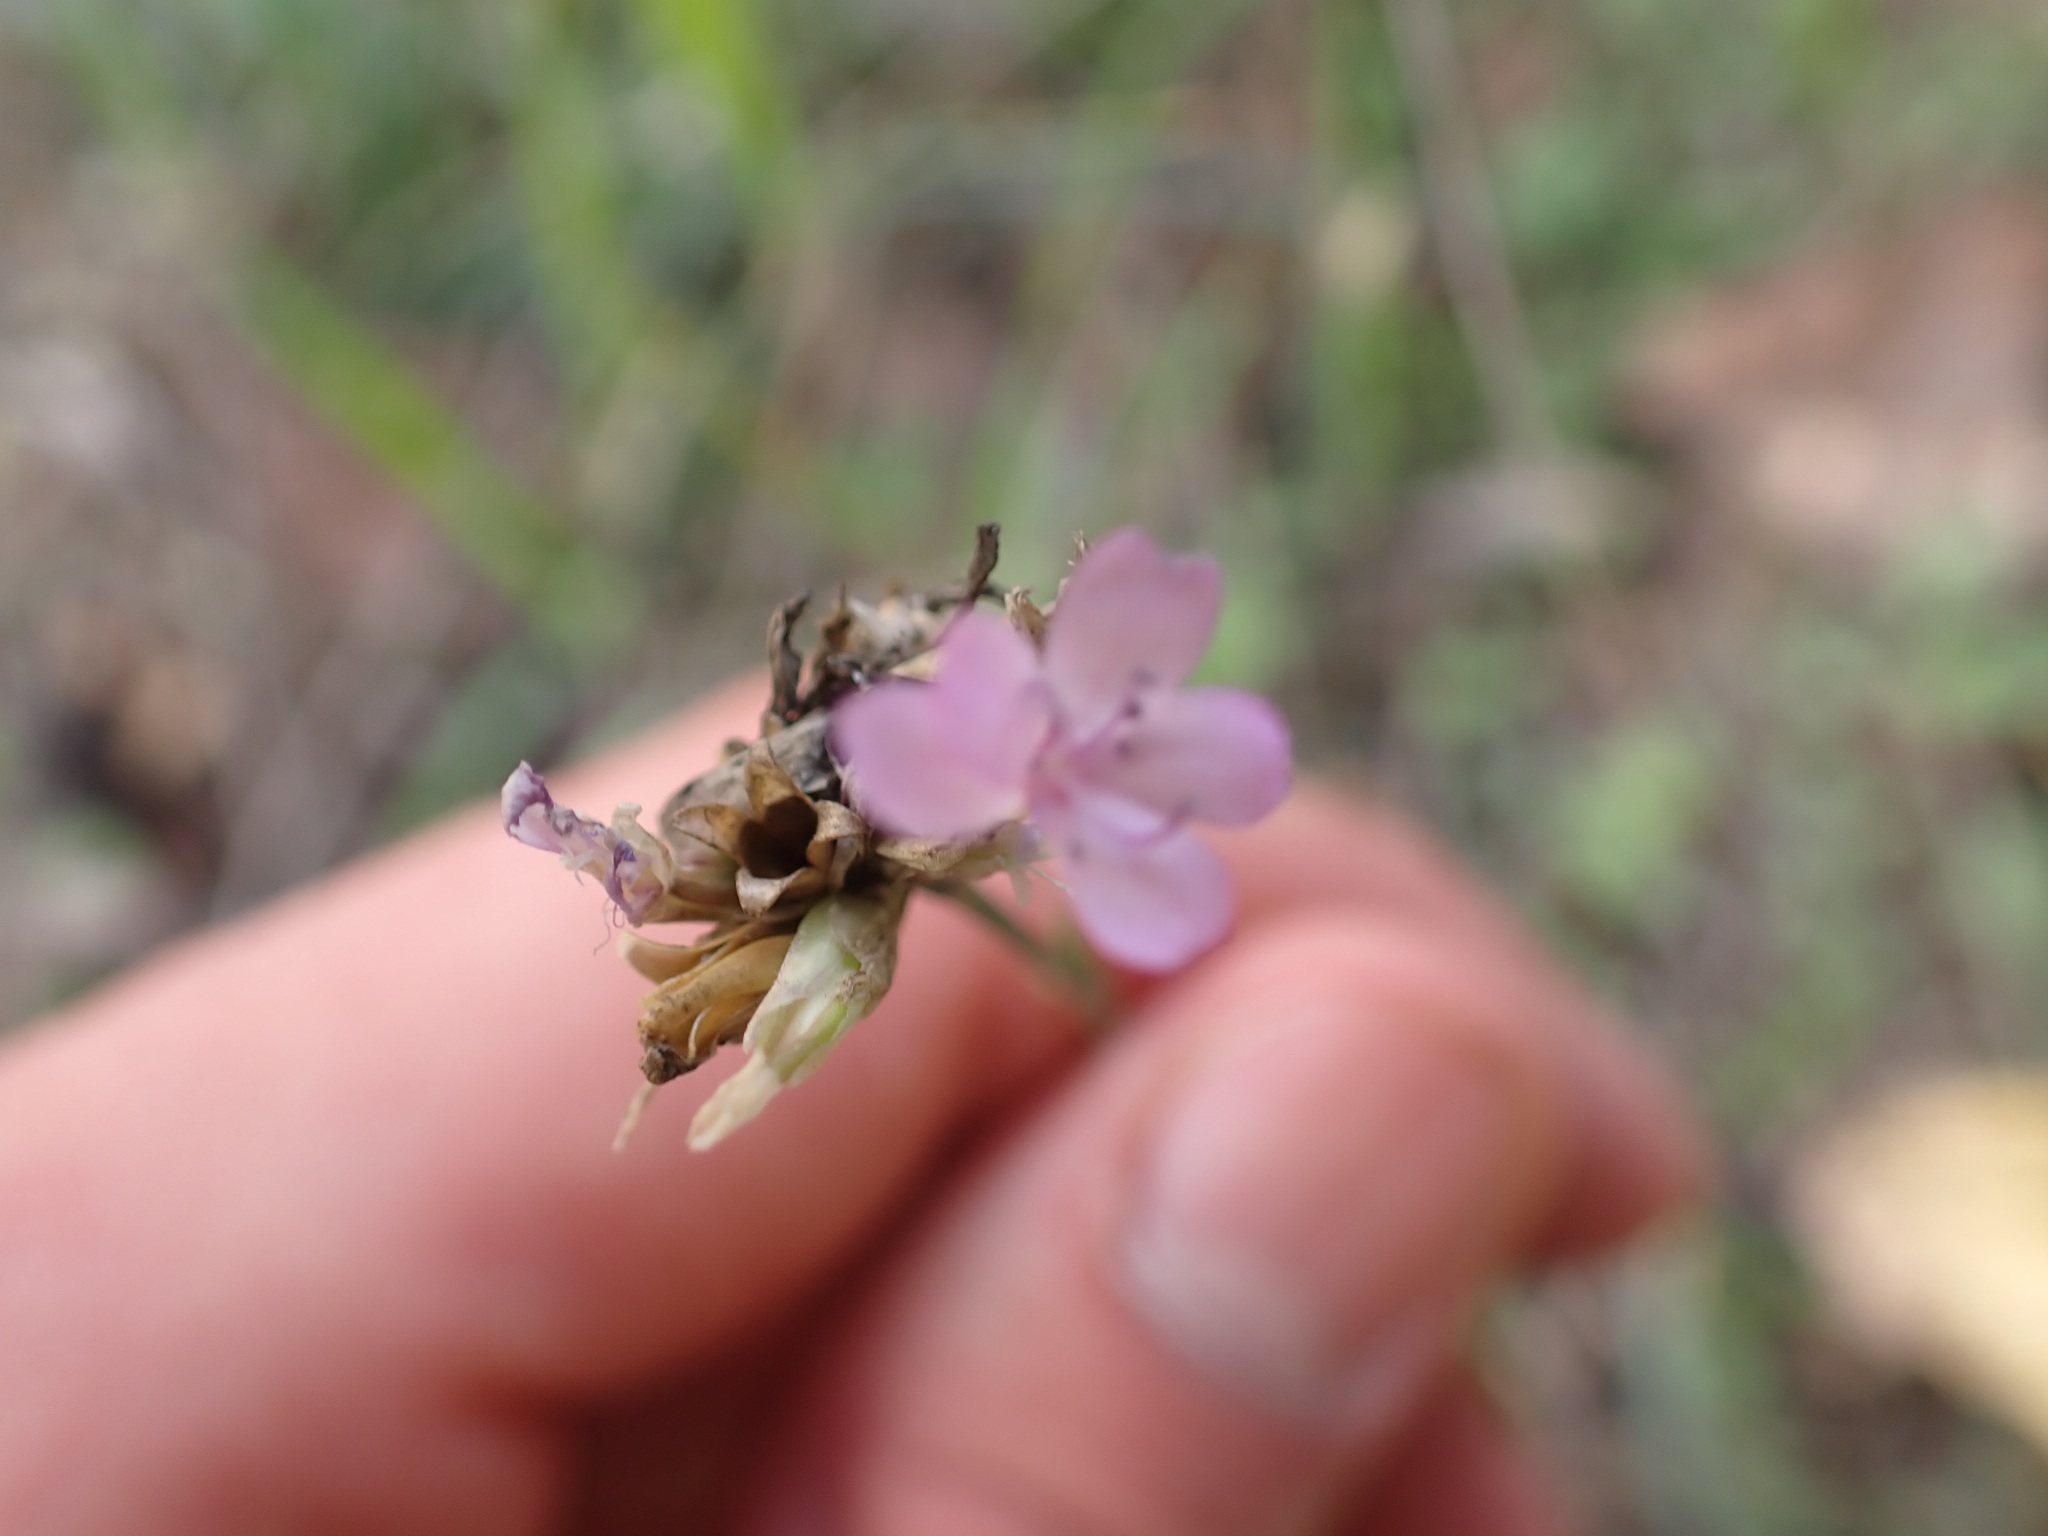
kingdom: Plantae
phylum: Tracheophyta
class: Magnoliopsida
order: Caryophyllales
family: Caryophyllaceae
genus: Petrorhagia
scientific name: Petrorhagia prolifera
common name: Proliferous pink
